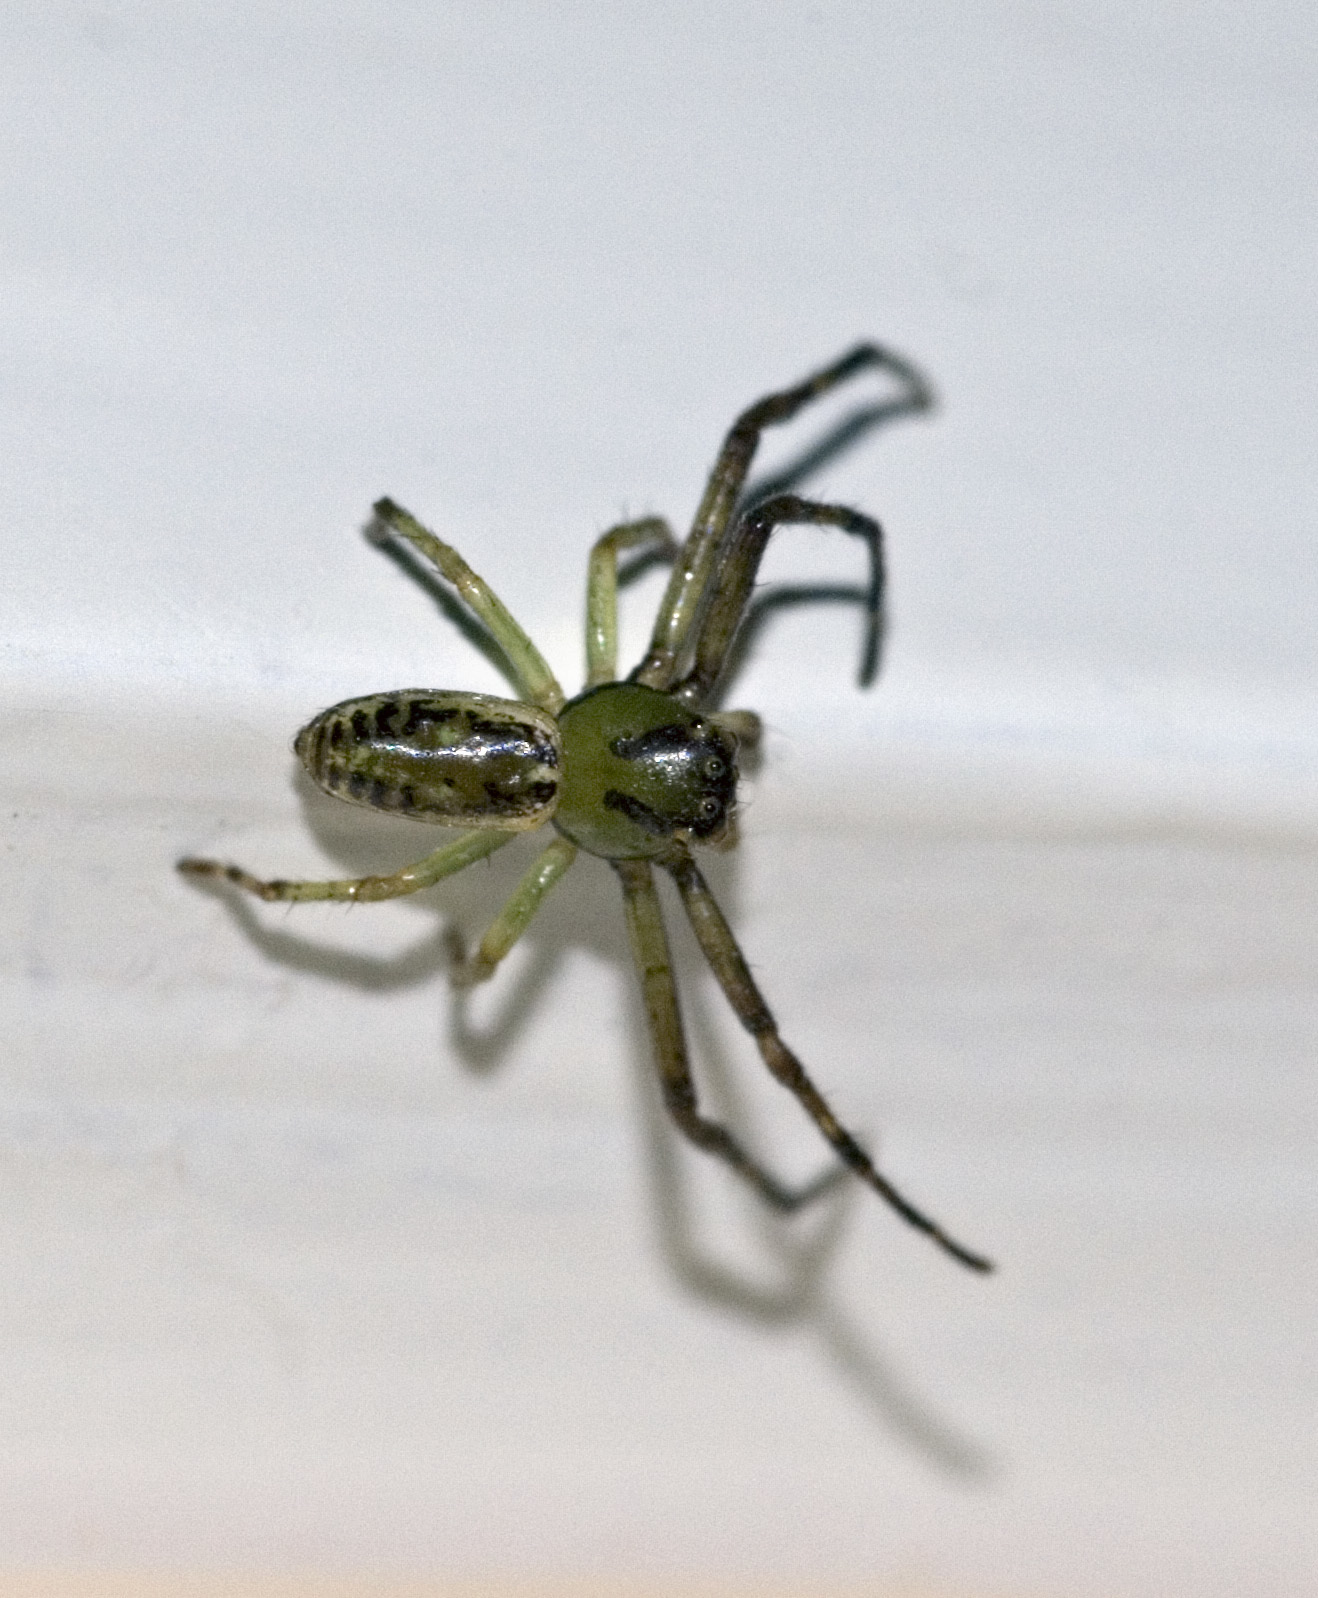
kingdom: Animalia
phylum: Arthropoda
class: Arachnida
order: Araneae
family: Thomisidae
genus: Diaea
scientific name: Diaea ambara
